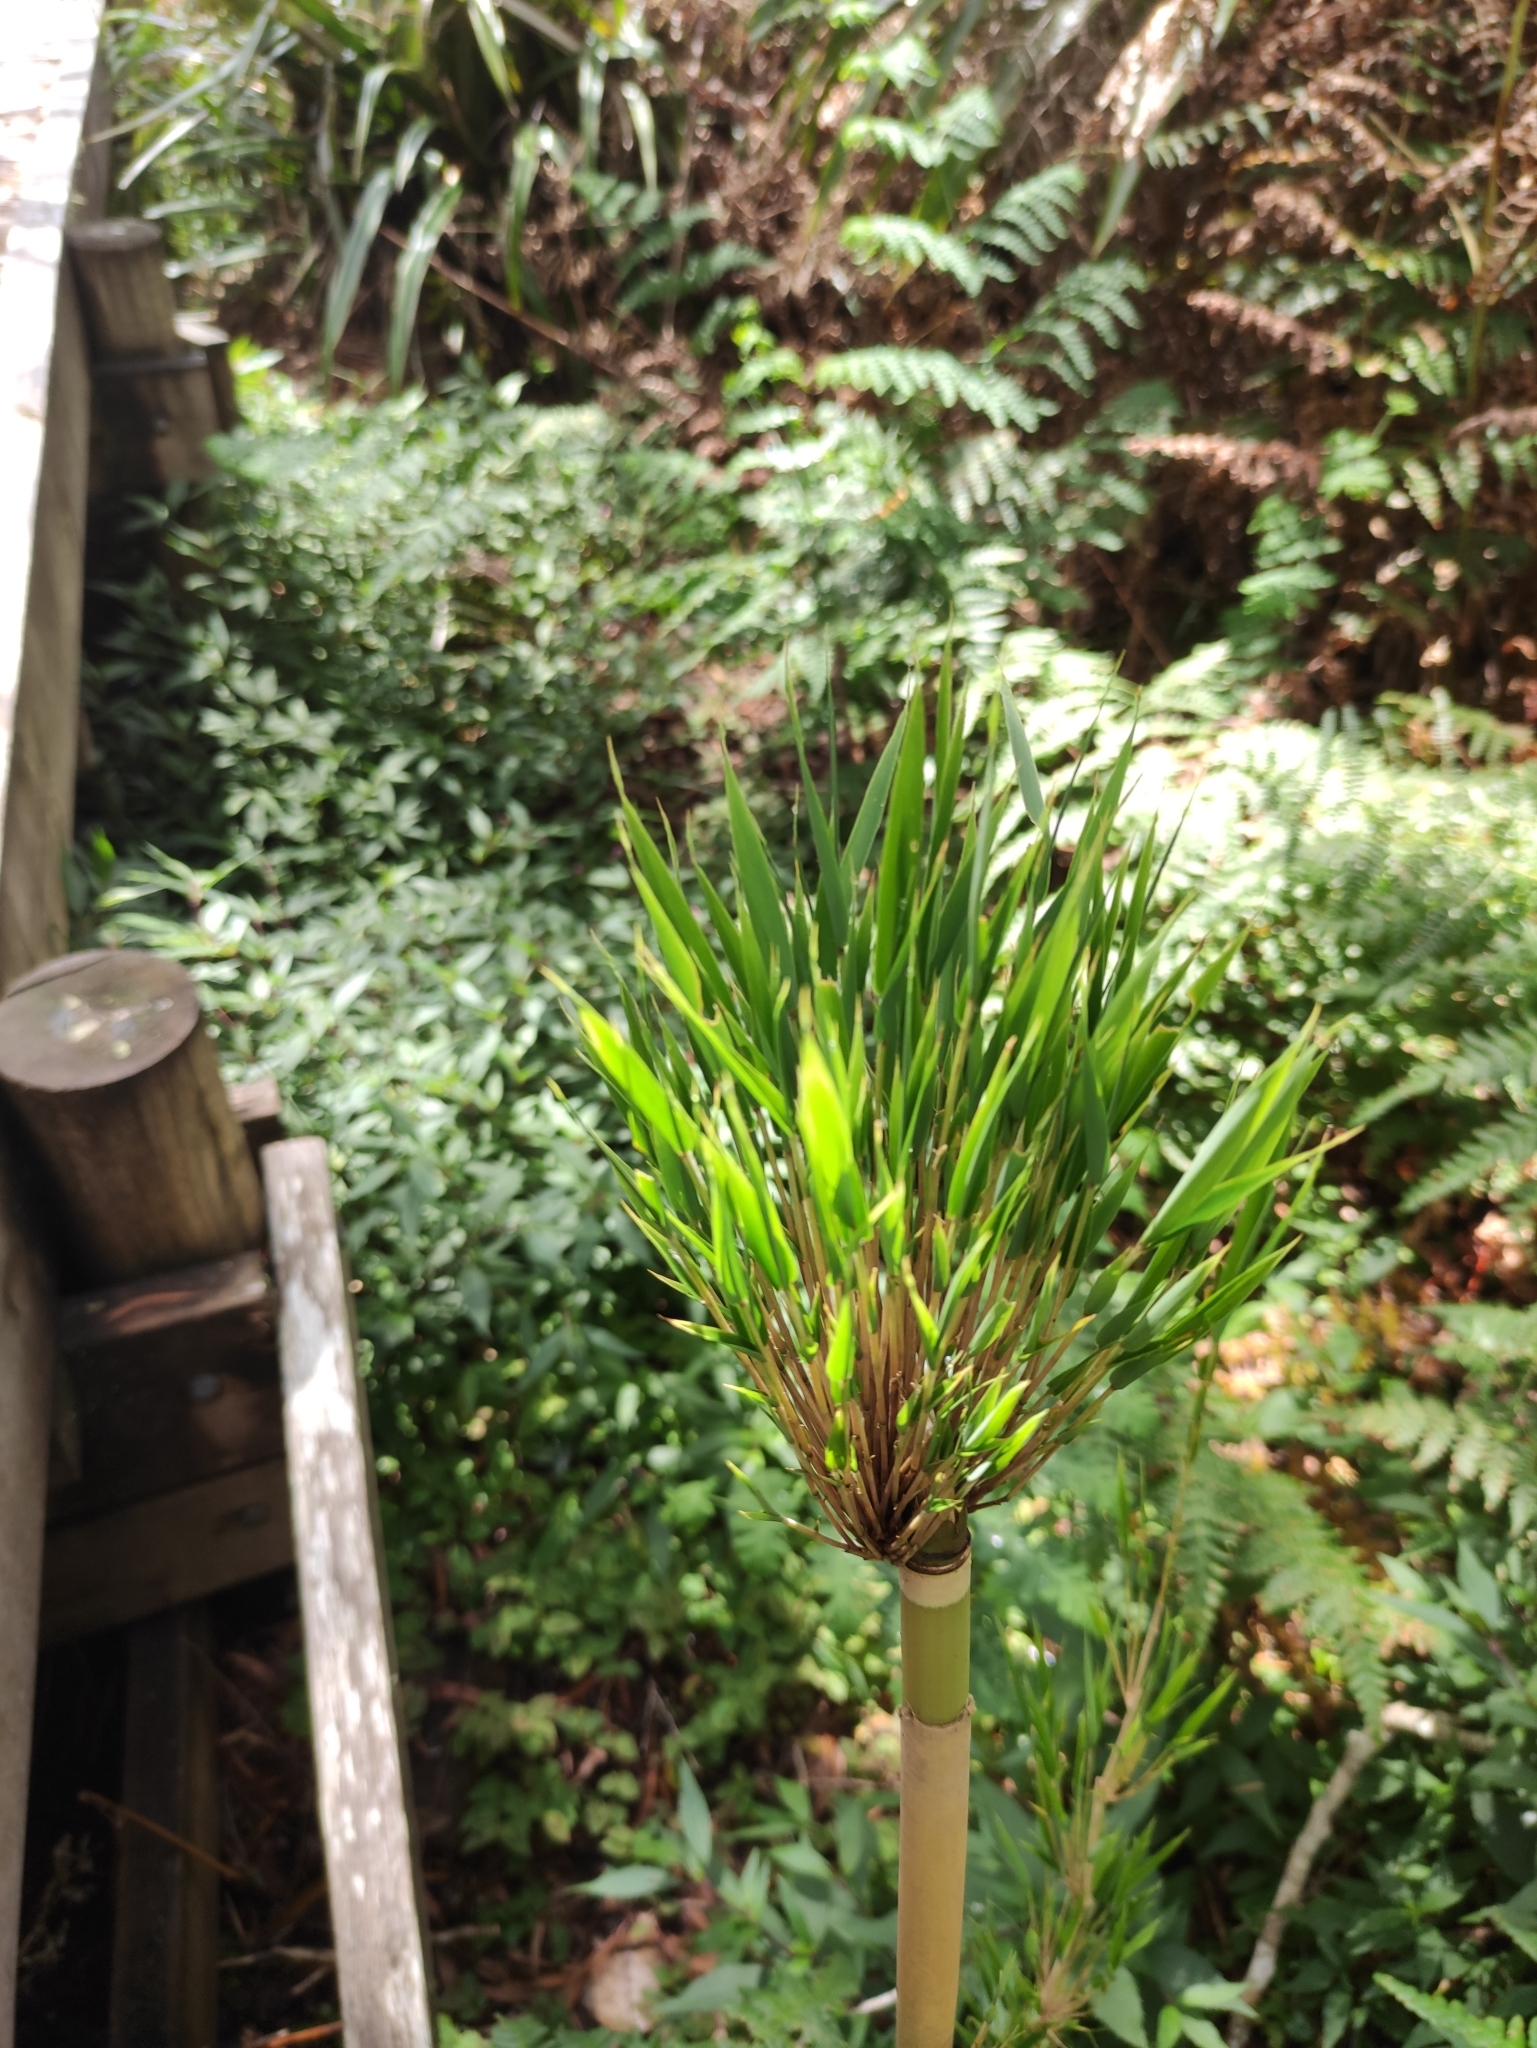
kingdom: Plantae
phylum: Tracheophyta
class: Liliopsida
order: Poales
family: Poaceae
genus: Nastus
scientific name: Nastus borbonicus
